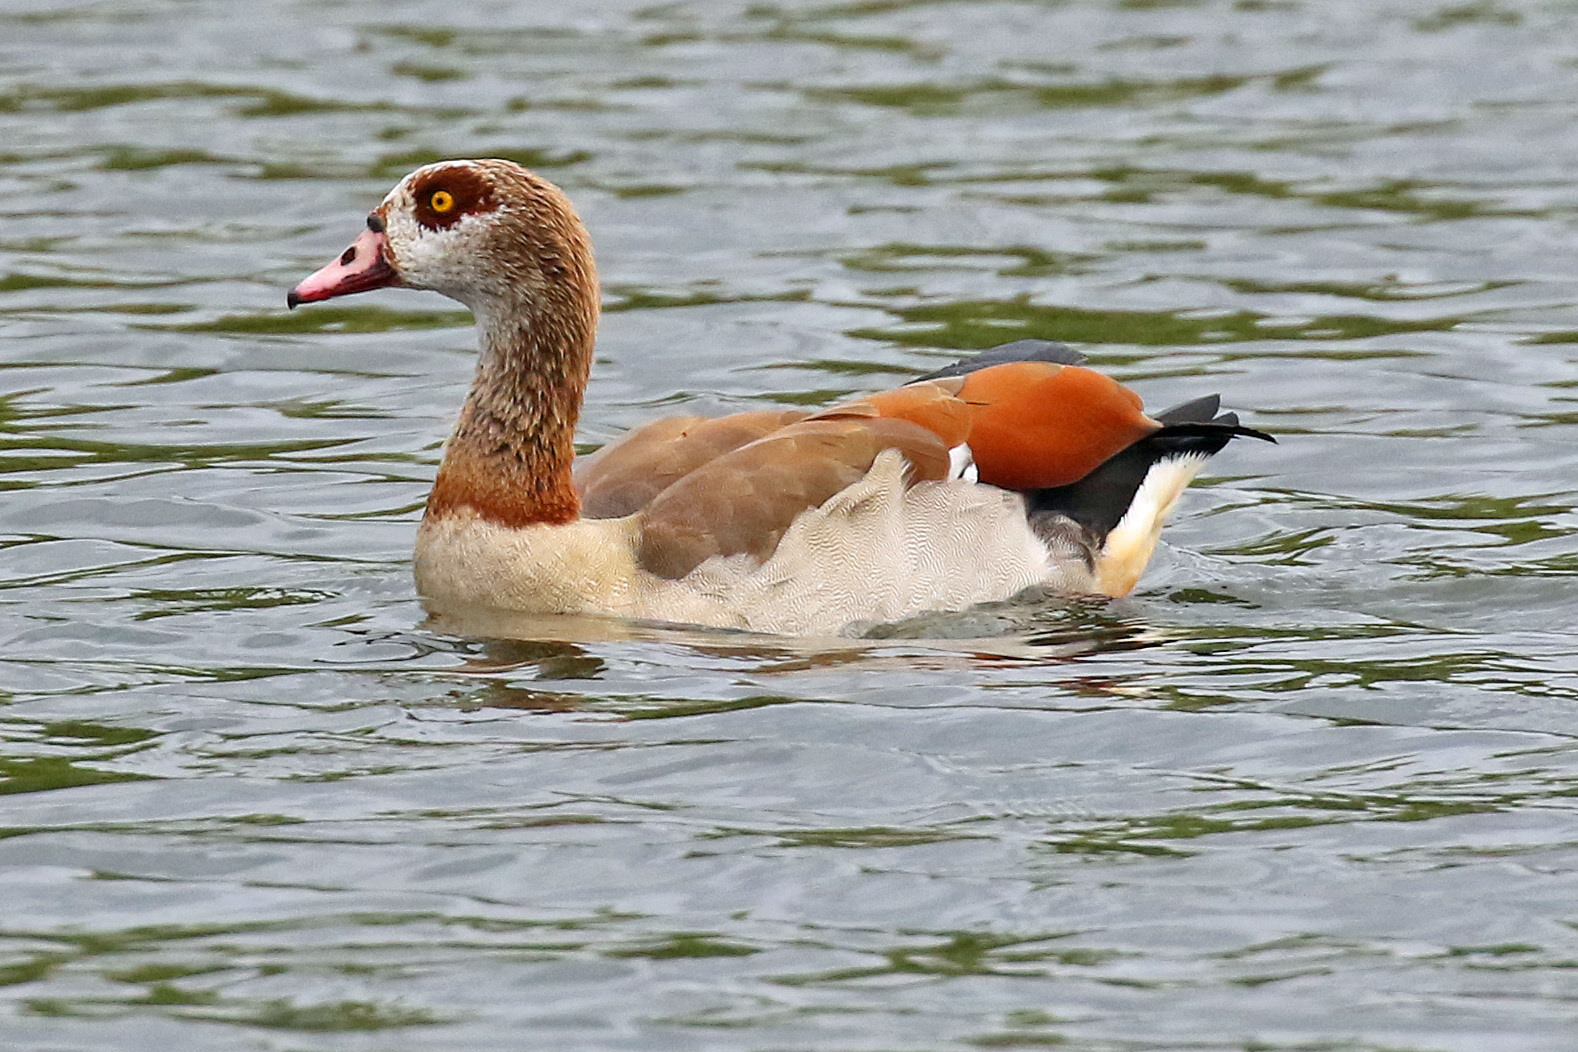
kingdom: Animalia
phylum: Chordata
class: Aves
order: Anseriformes
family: Anatidae
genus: Alopochen
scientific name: Alopochen aegyptiaca
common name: Egyptian goose
